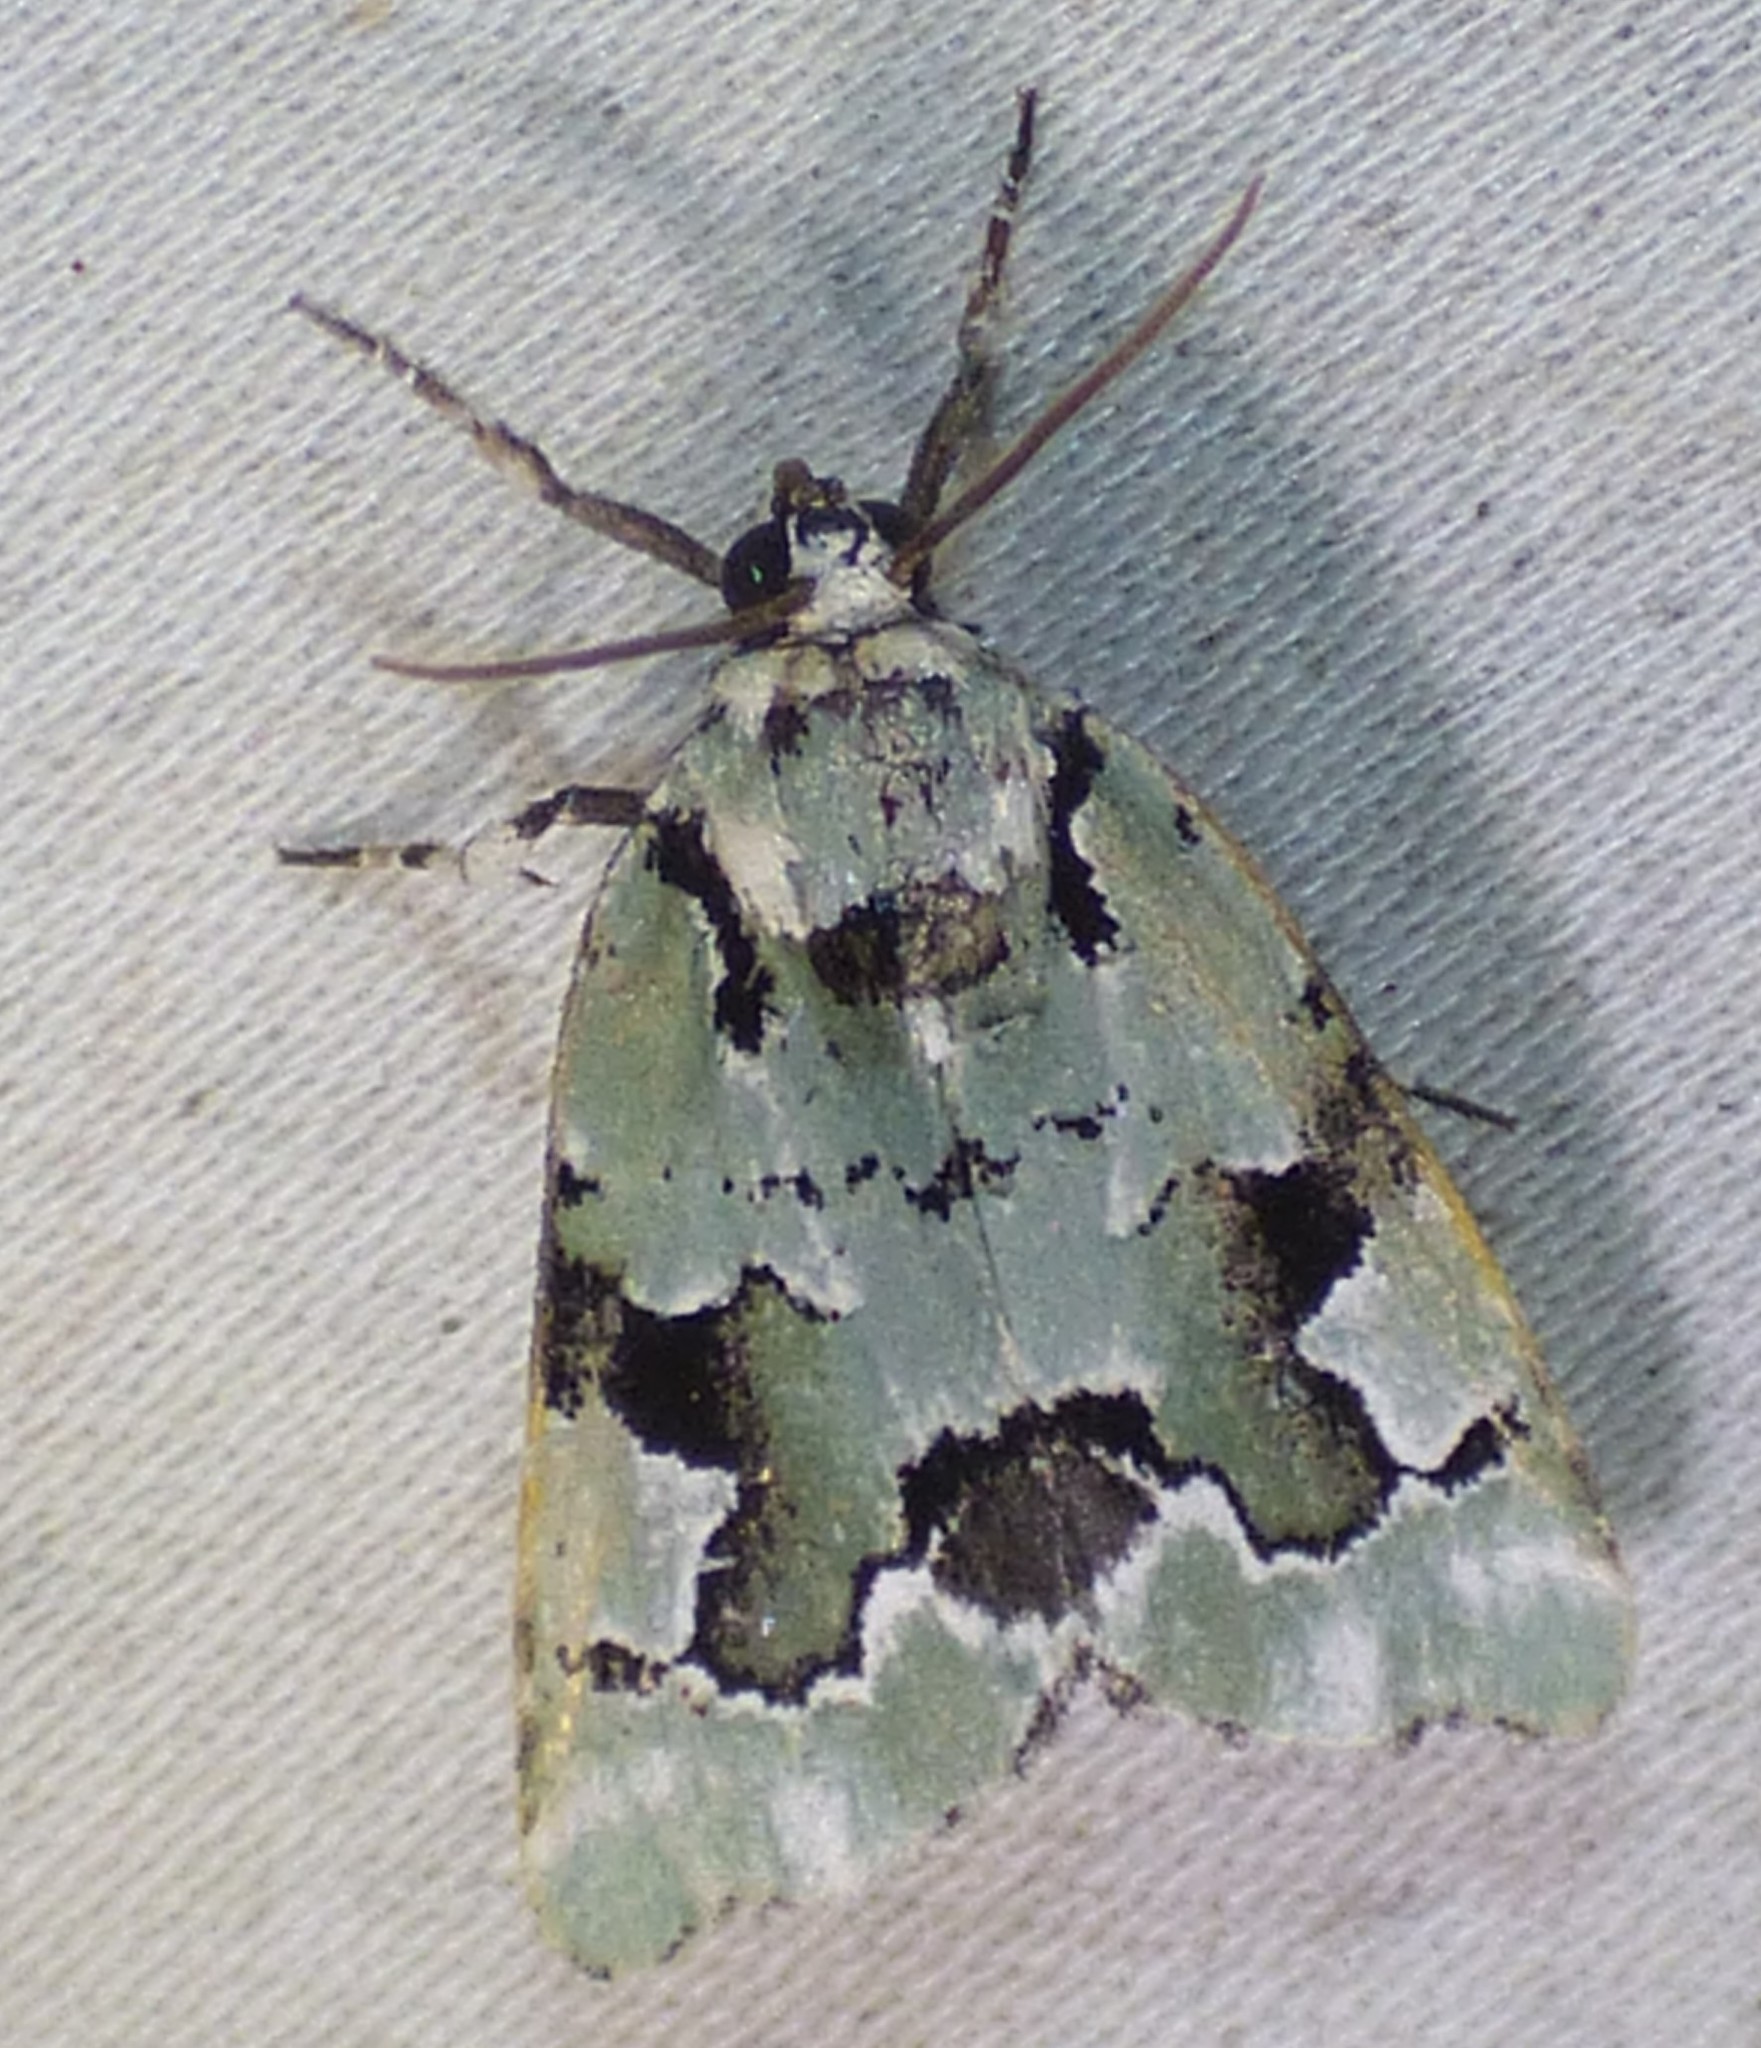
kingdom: Animalia
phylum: Arthropoda
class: Insecta
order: Lepidoptera
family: Noctuidae
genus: Emarginea
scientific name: Emarginea percara
